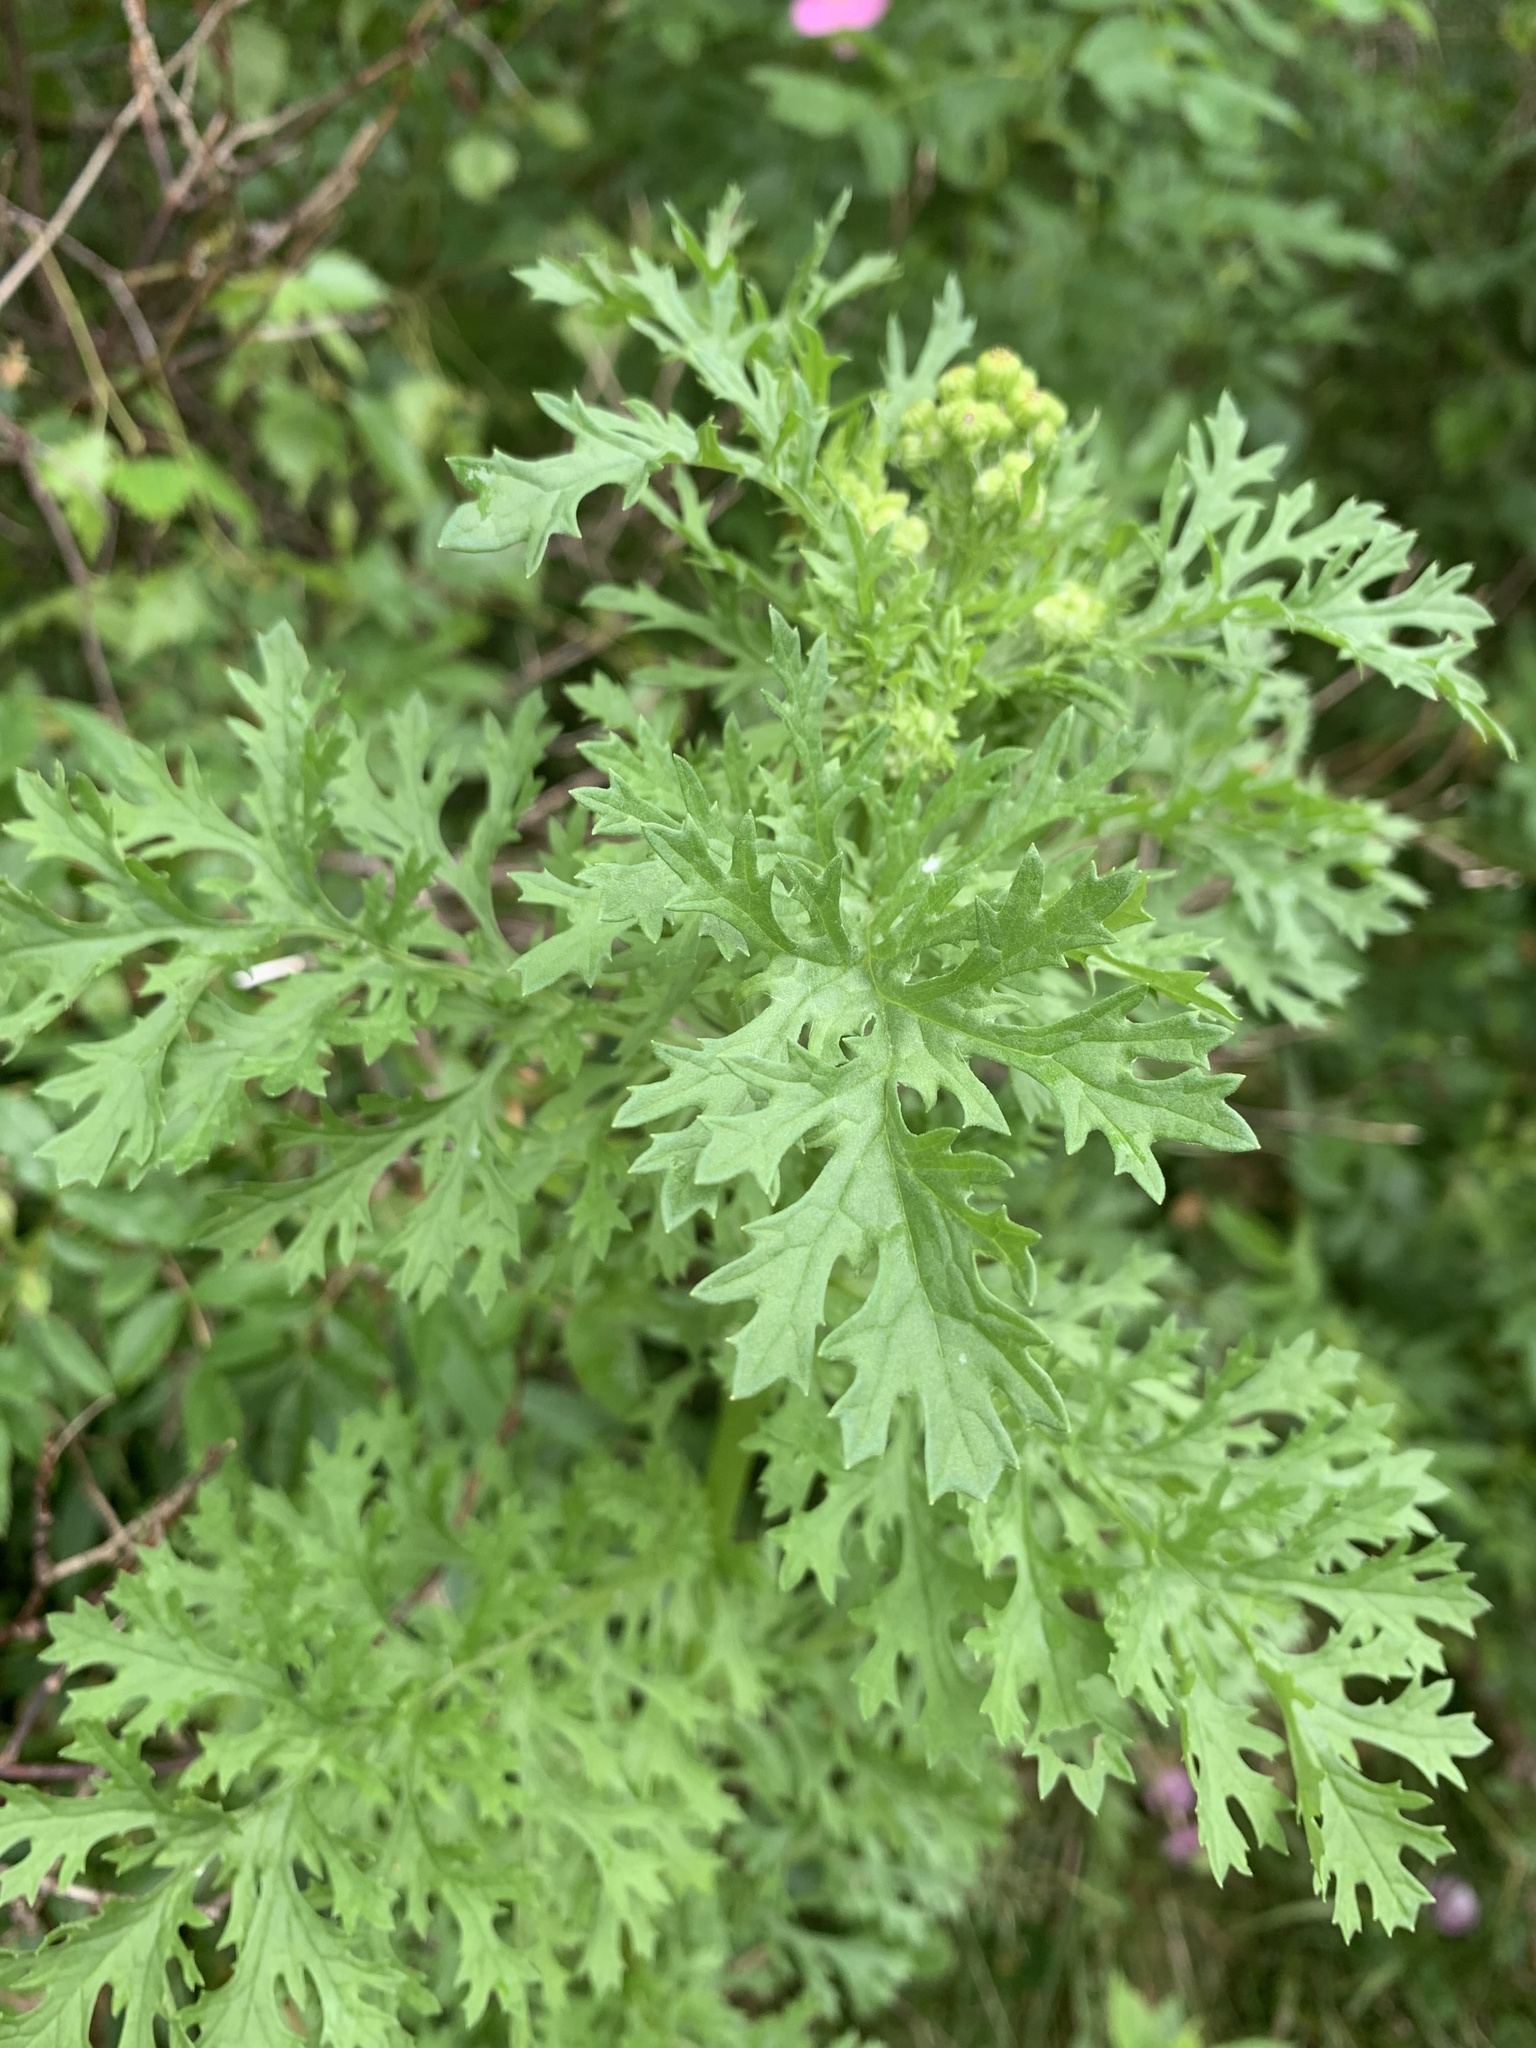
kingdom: Plantae
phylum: Tracheophyta
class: Magnoliopsida
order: Asterales
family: Asteraceae
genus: Jacobaea
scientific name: Jacobaea vulgaris
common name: Stinking willie
